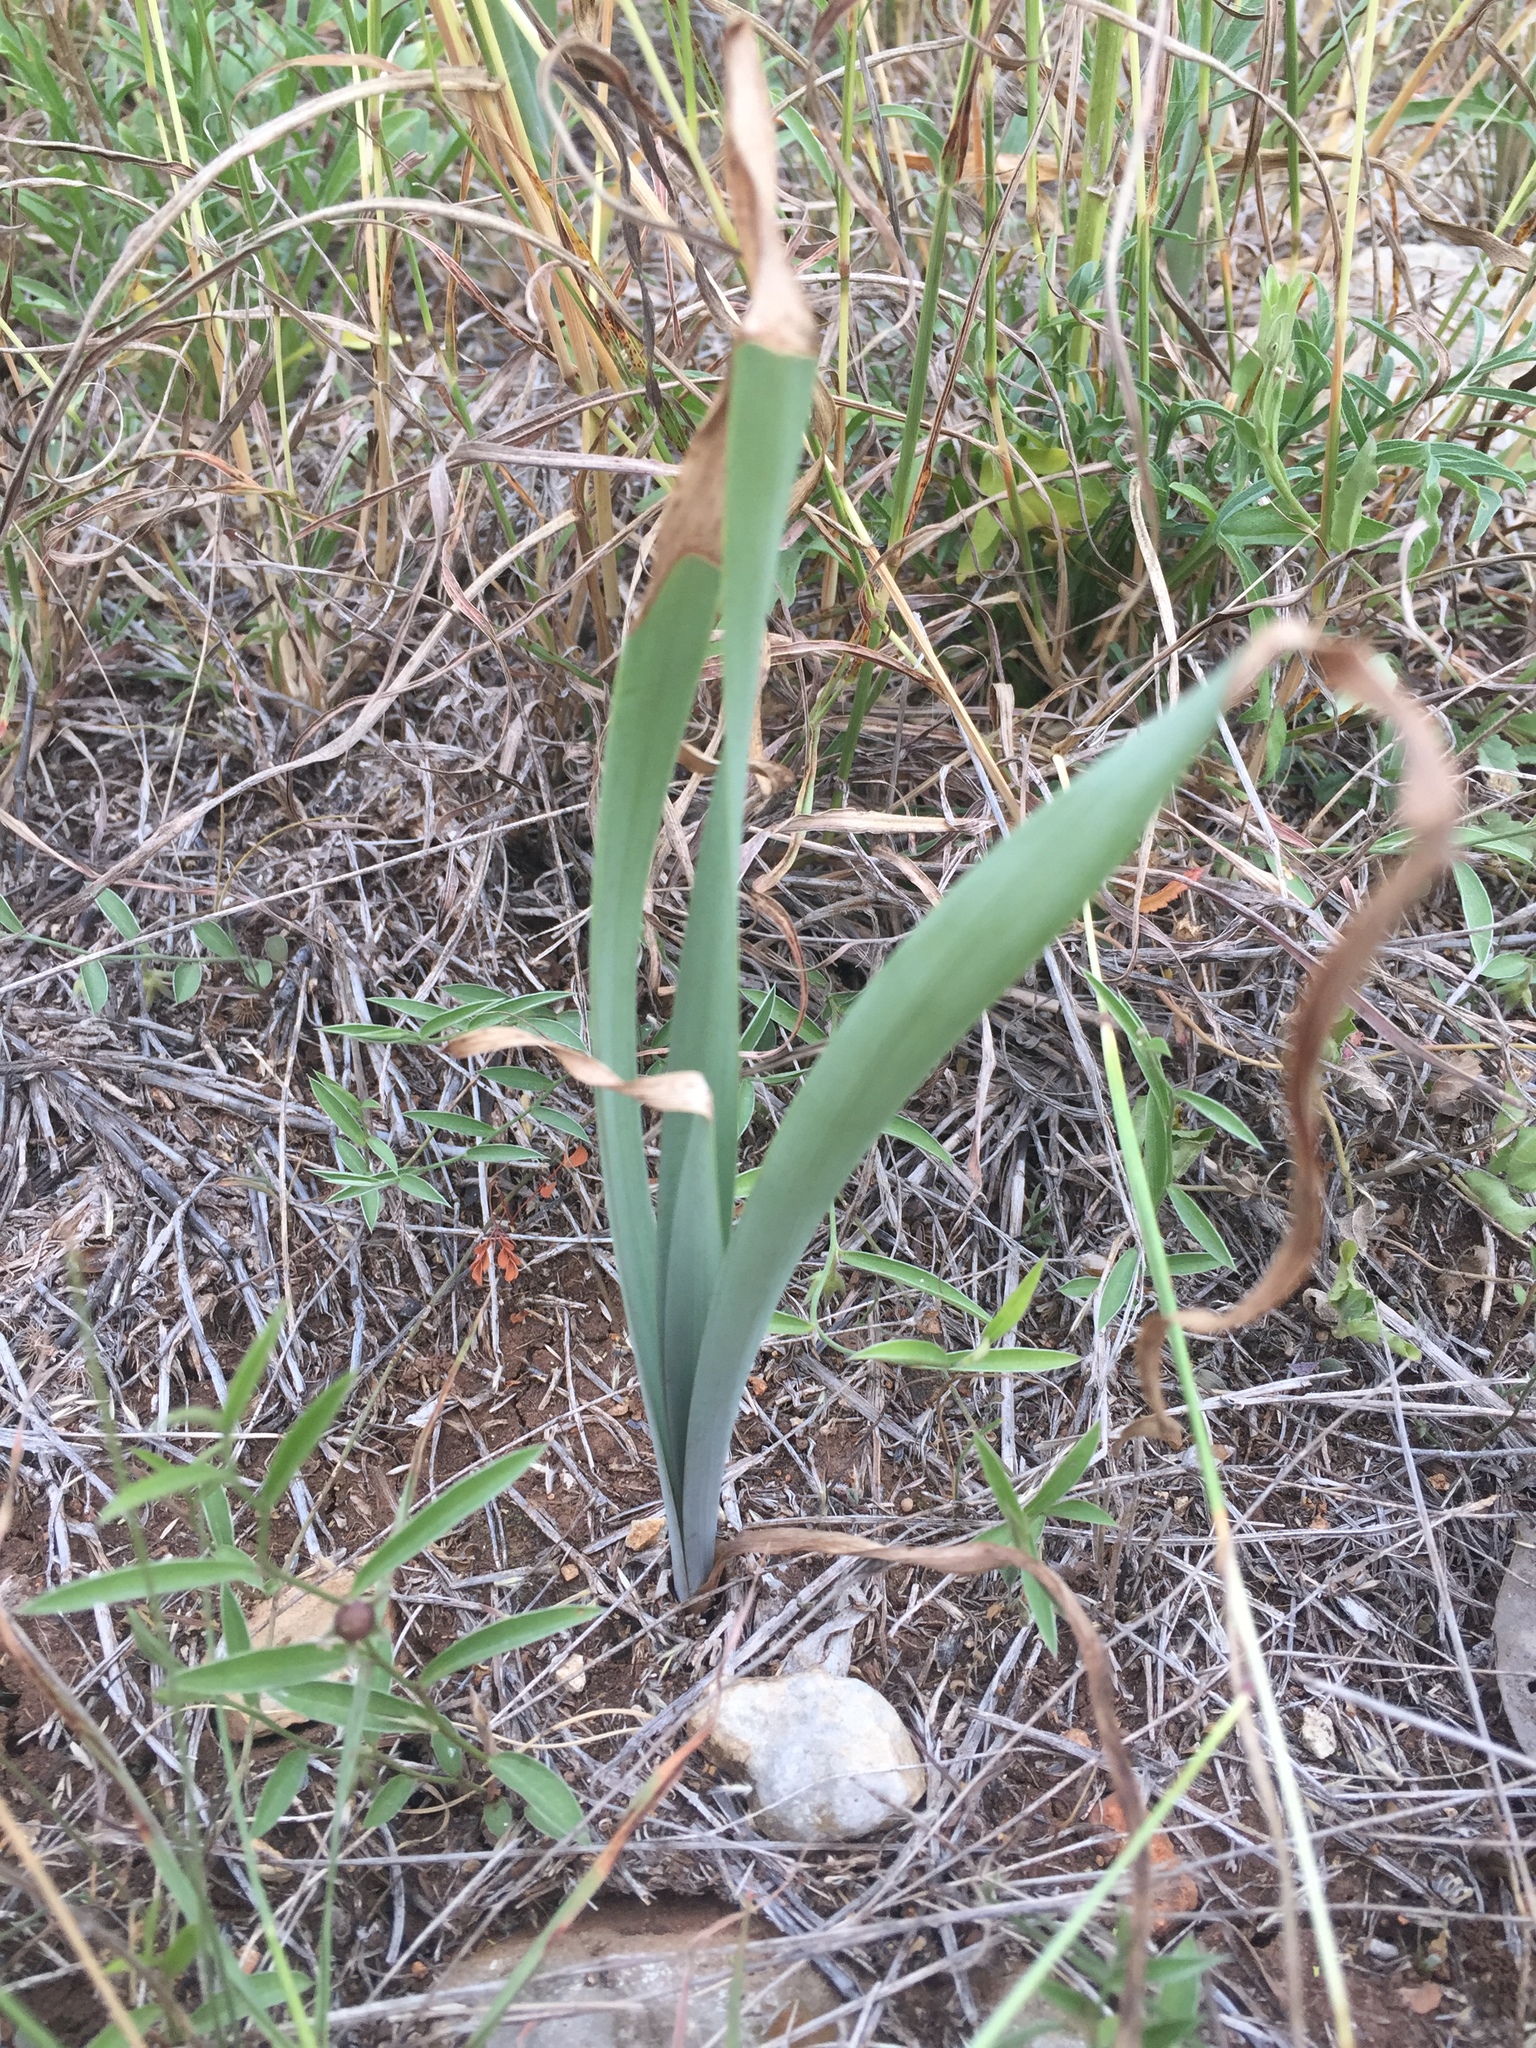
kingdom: Plantae
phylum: Tracheophyta
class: Liliopsida
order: Asparagales
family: Amaryllidaceae
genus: Zephyranthes
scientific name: Zephyranthes drummondii
